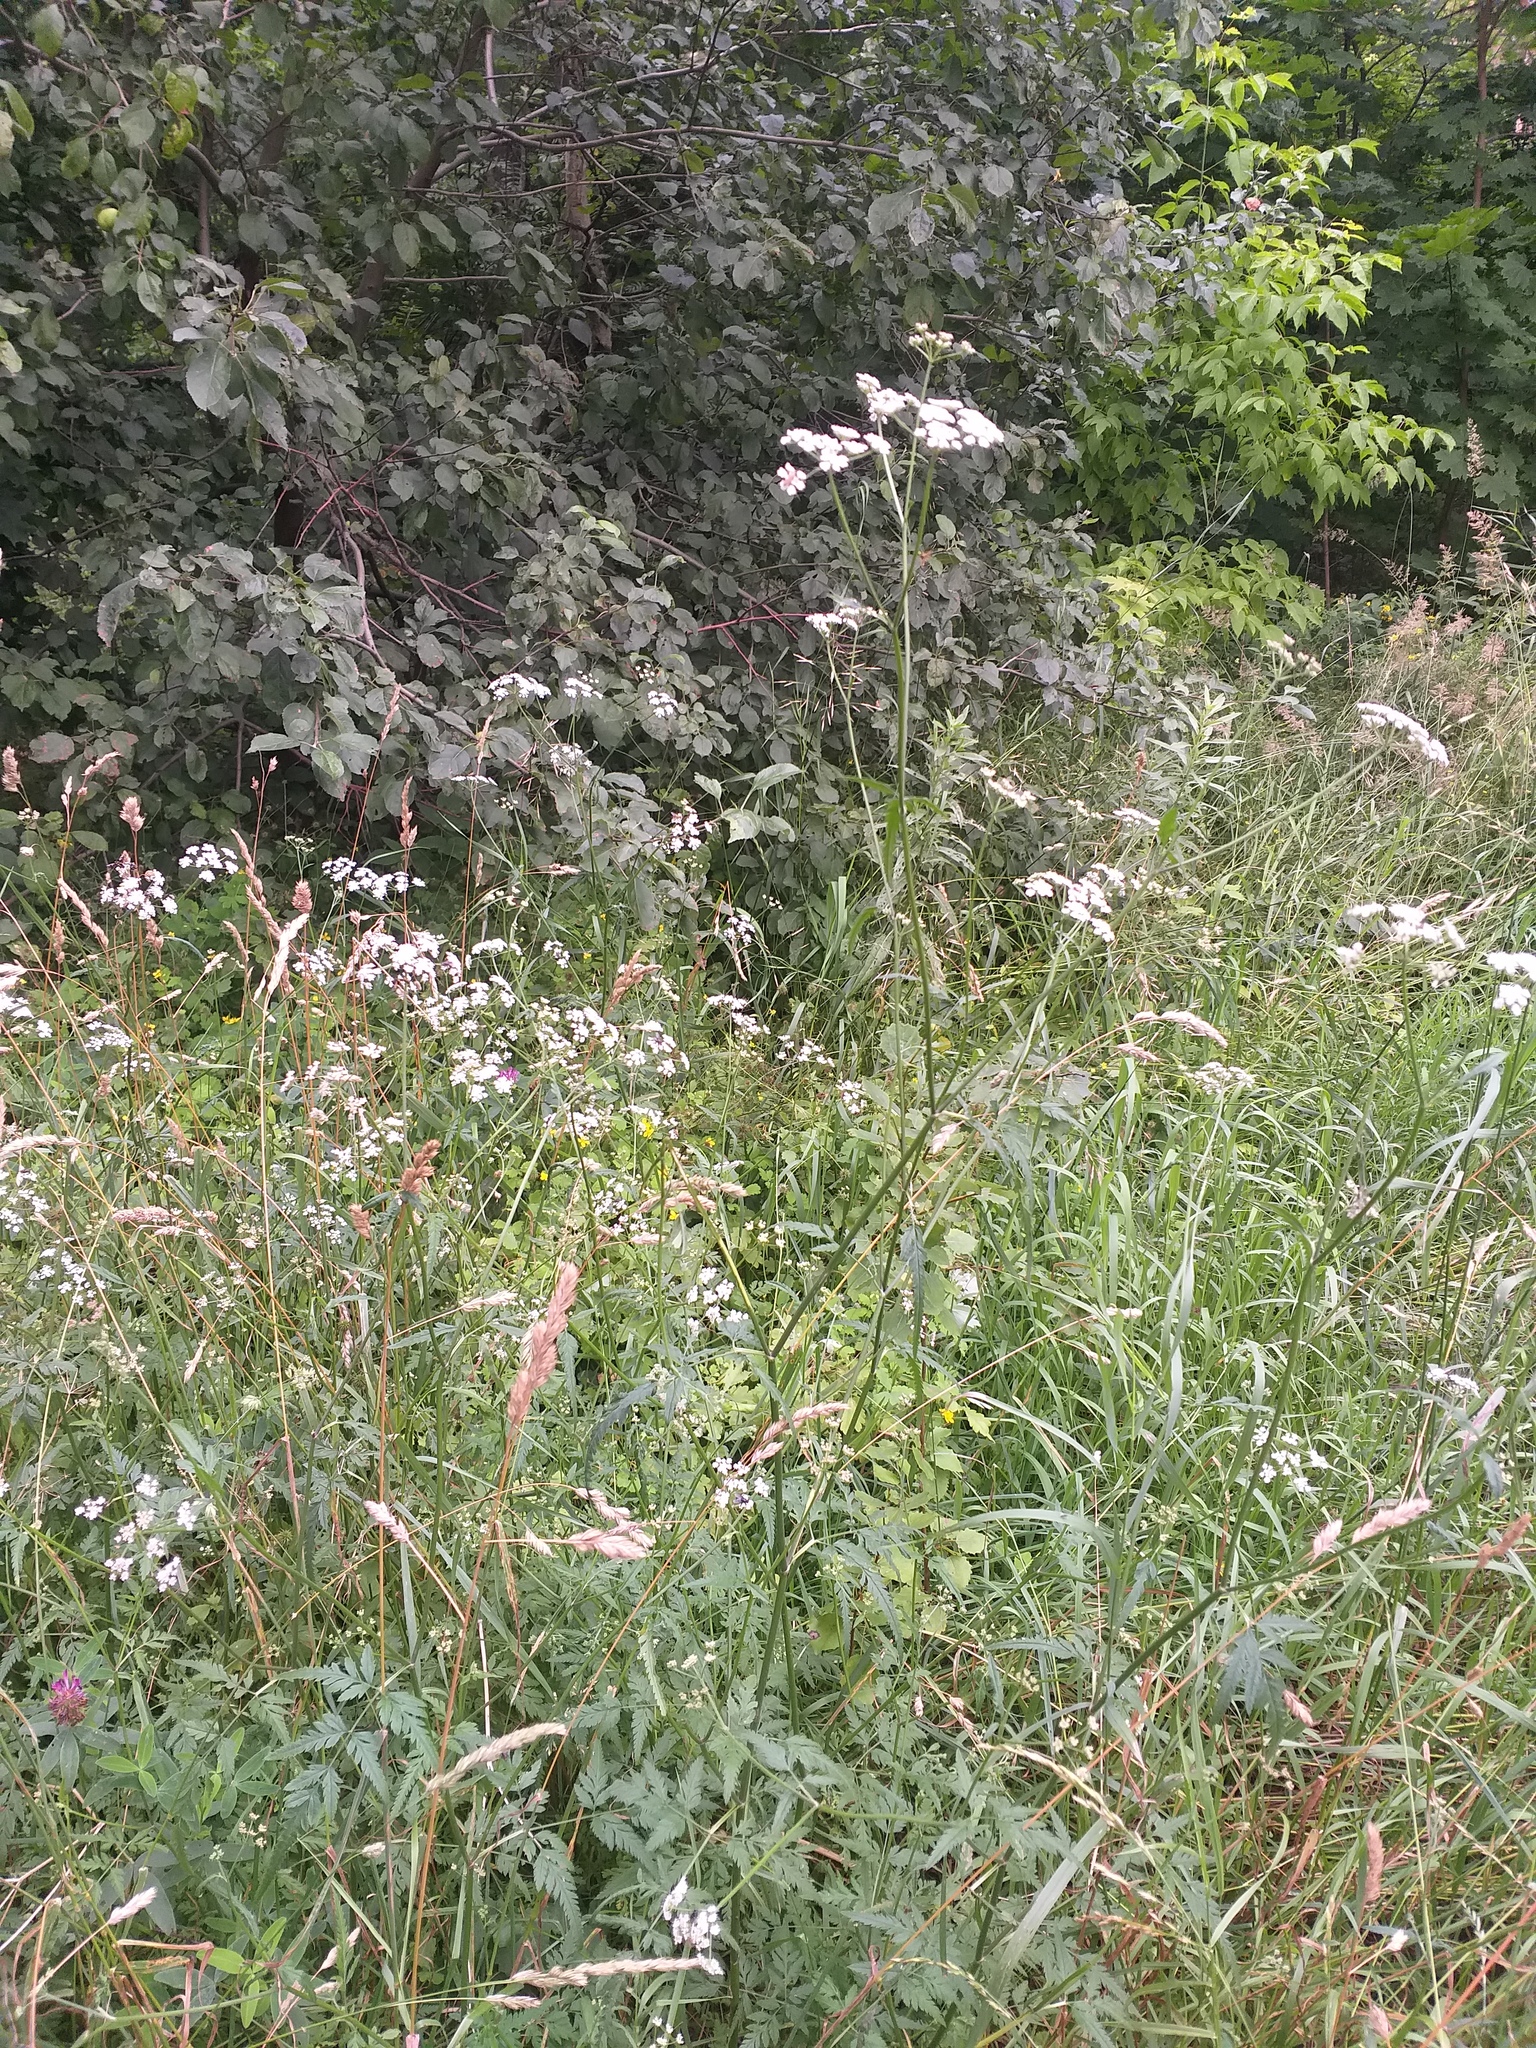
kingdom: Plantae
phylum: Tracheophyta
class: Magnoliopsida
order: Apiales
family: Apiaceae
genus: Torilis
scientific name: Torilis japonica
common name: Upright hedge-parsley
